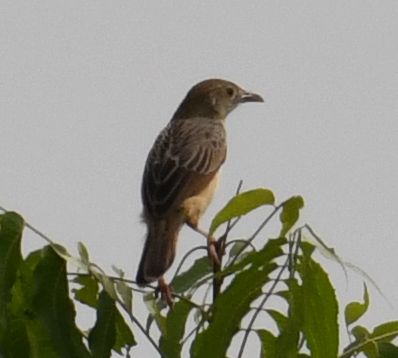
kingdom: Animalia
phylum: Chordata
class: Aves
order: Passeriformes
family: Cisticolidae
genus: Cisticola
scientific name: Cisticola natalensis
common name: Croaking cisticola
